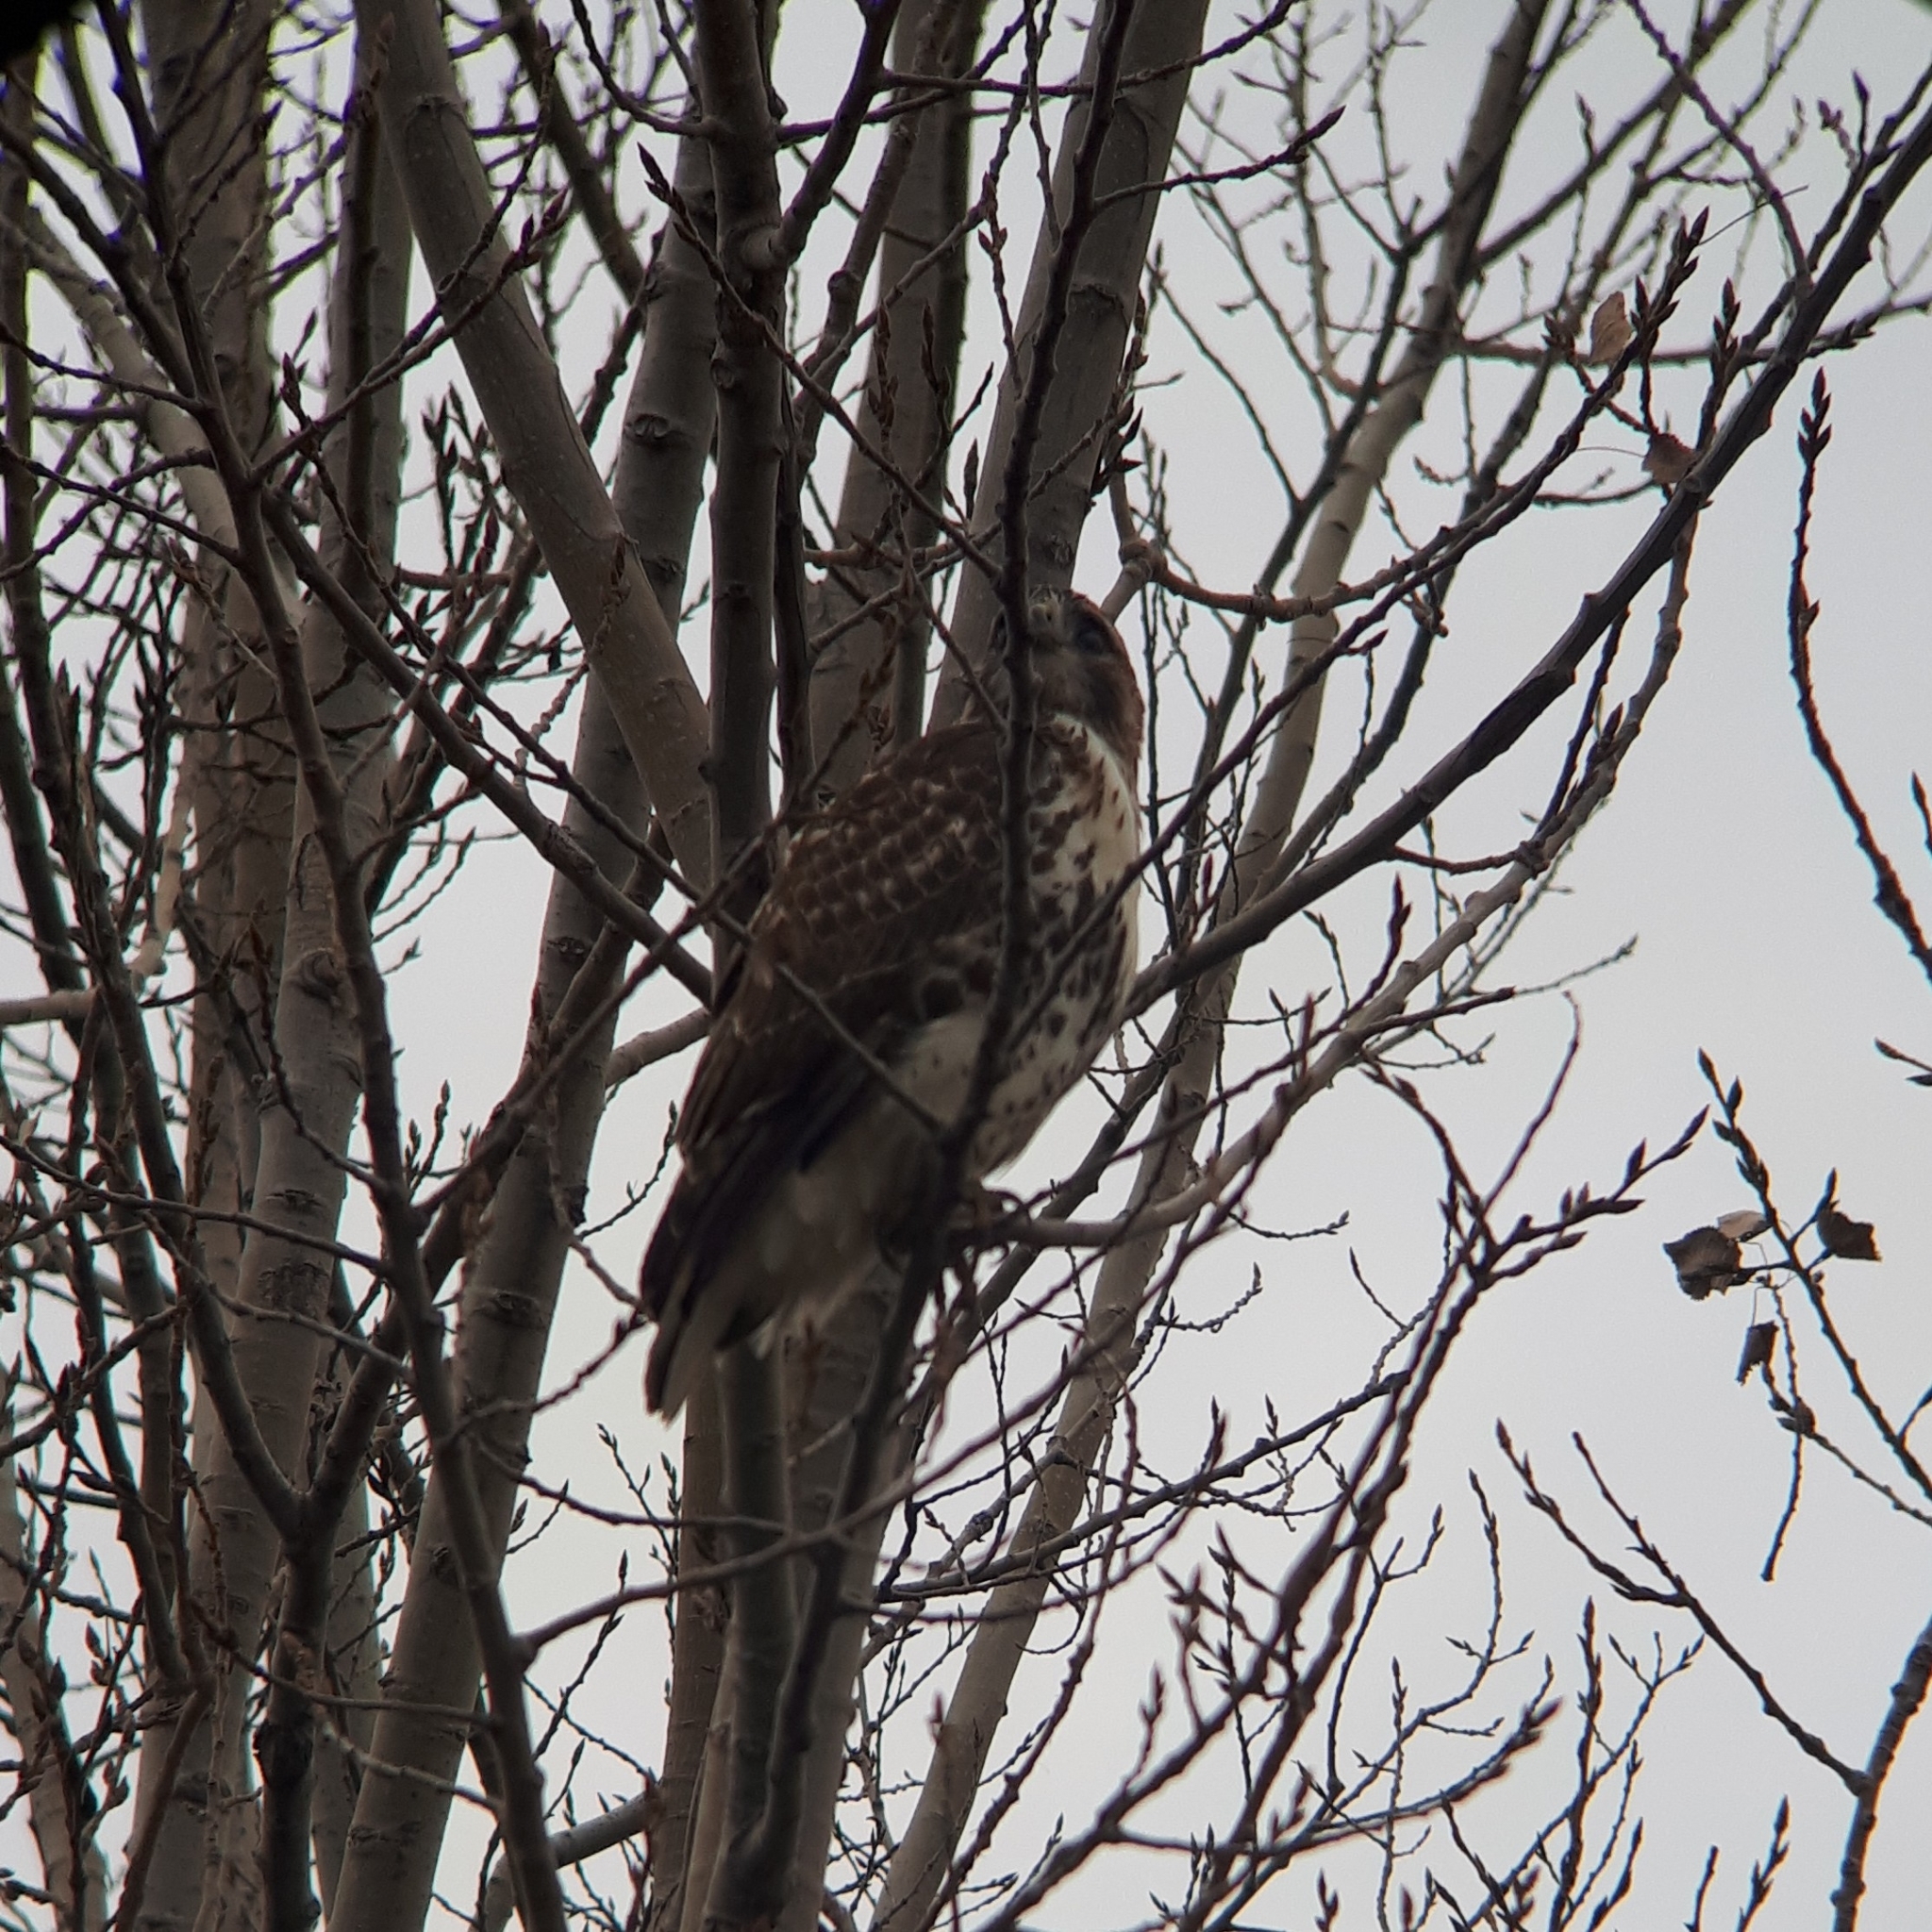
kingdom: Animalia
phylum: Chordata
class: Aves
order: Accipitriformes
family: Accipitridae
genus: Buteo
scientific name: Buteo jamaicensis
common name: Red-tailed hawk
